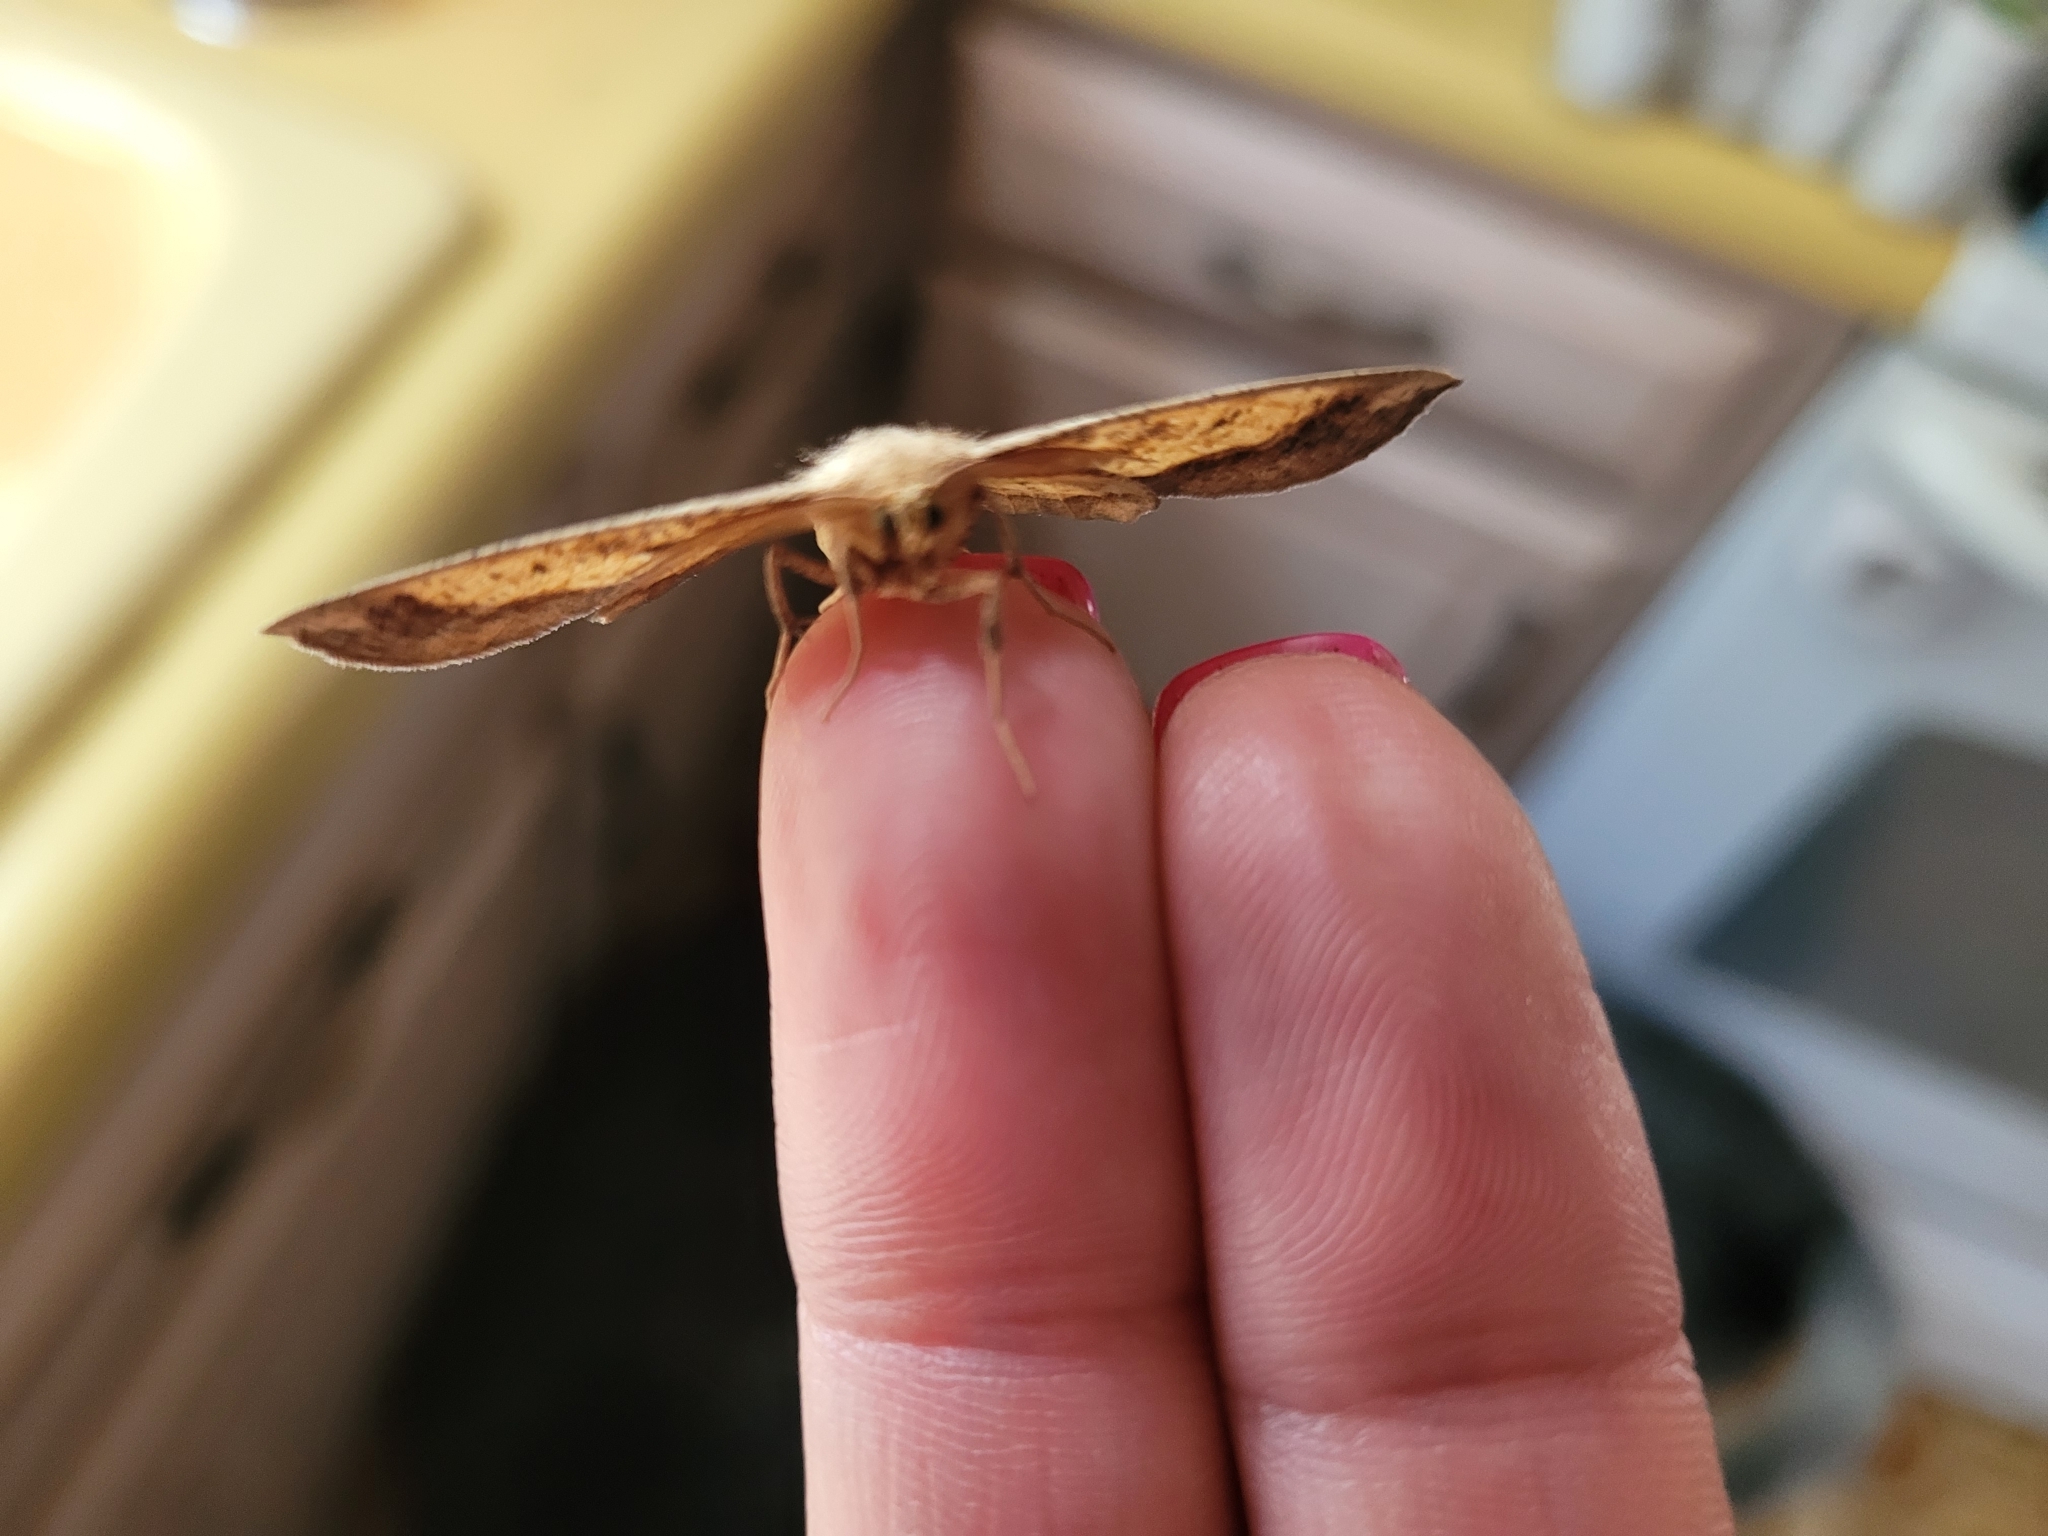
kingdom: Animalia
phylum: Arthropoda
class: Insecta
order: Lepidoptera
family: Geometridae
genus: Euchlaena
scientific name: Euchlaena serrata
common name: Saw wing
